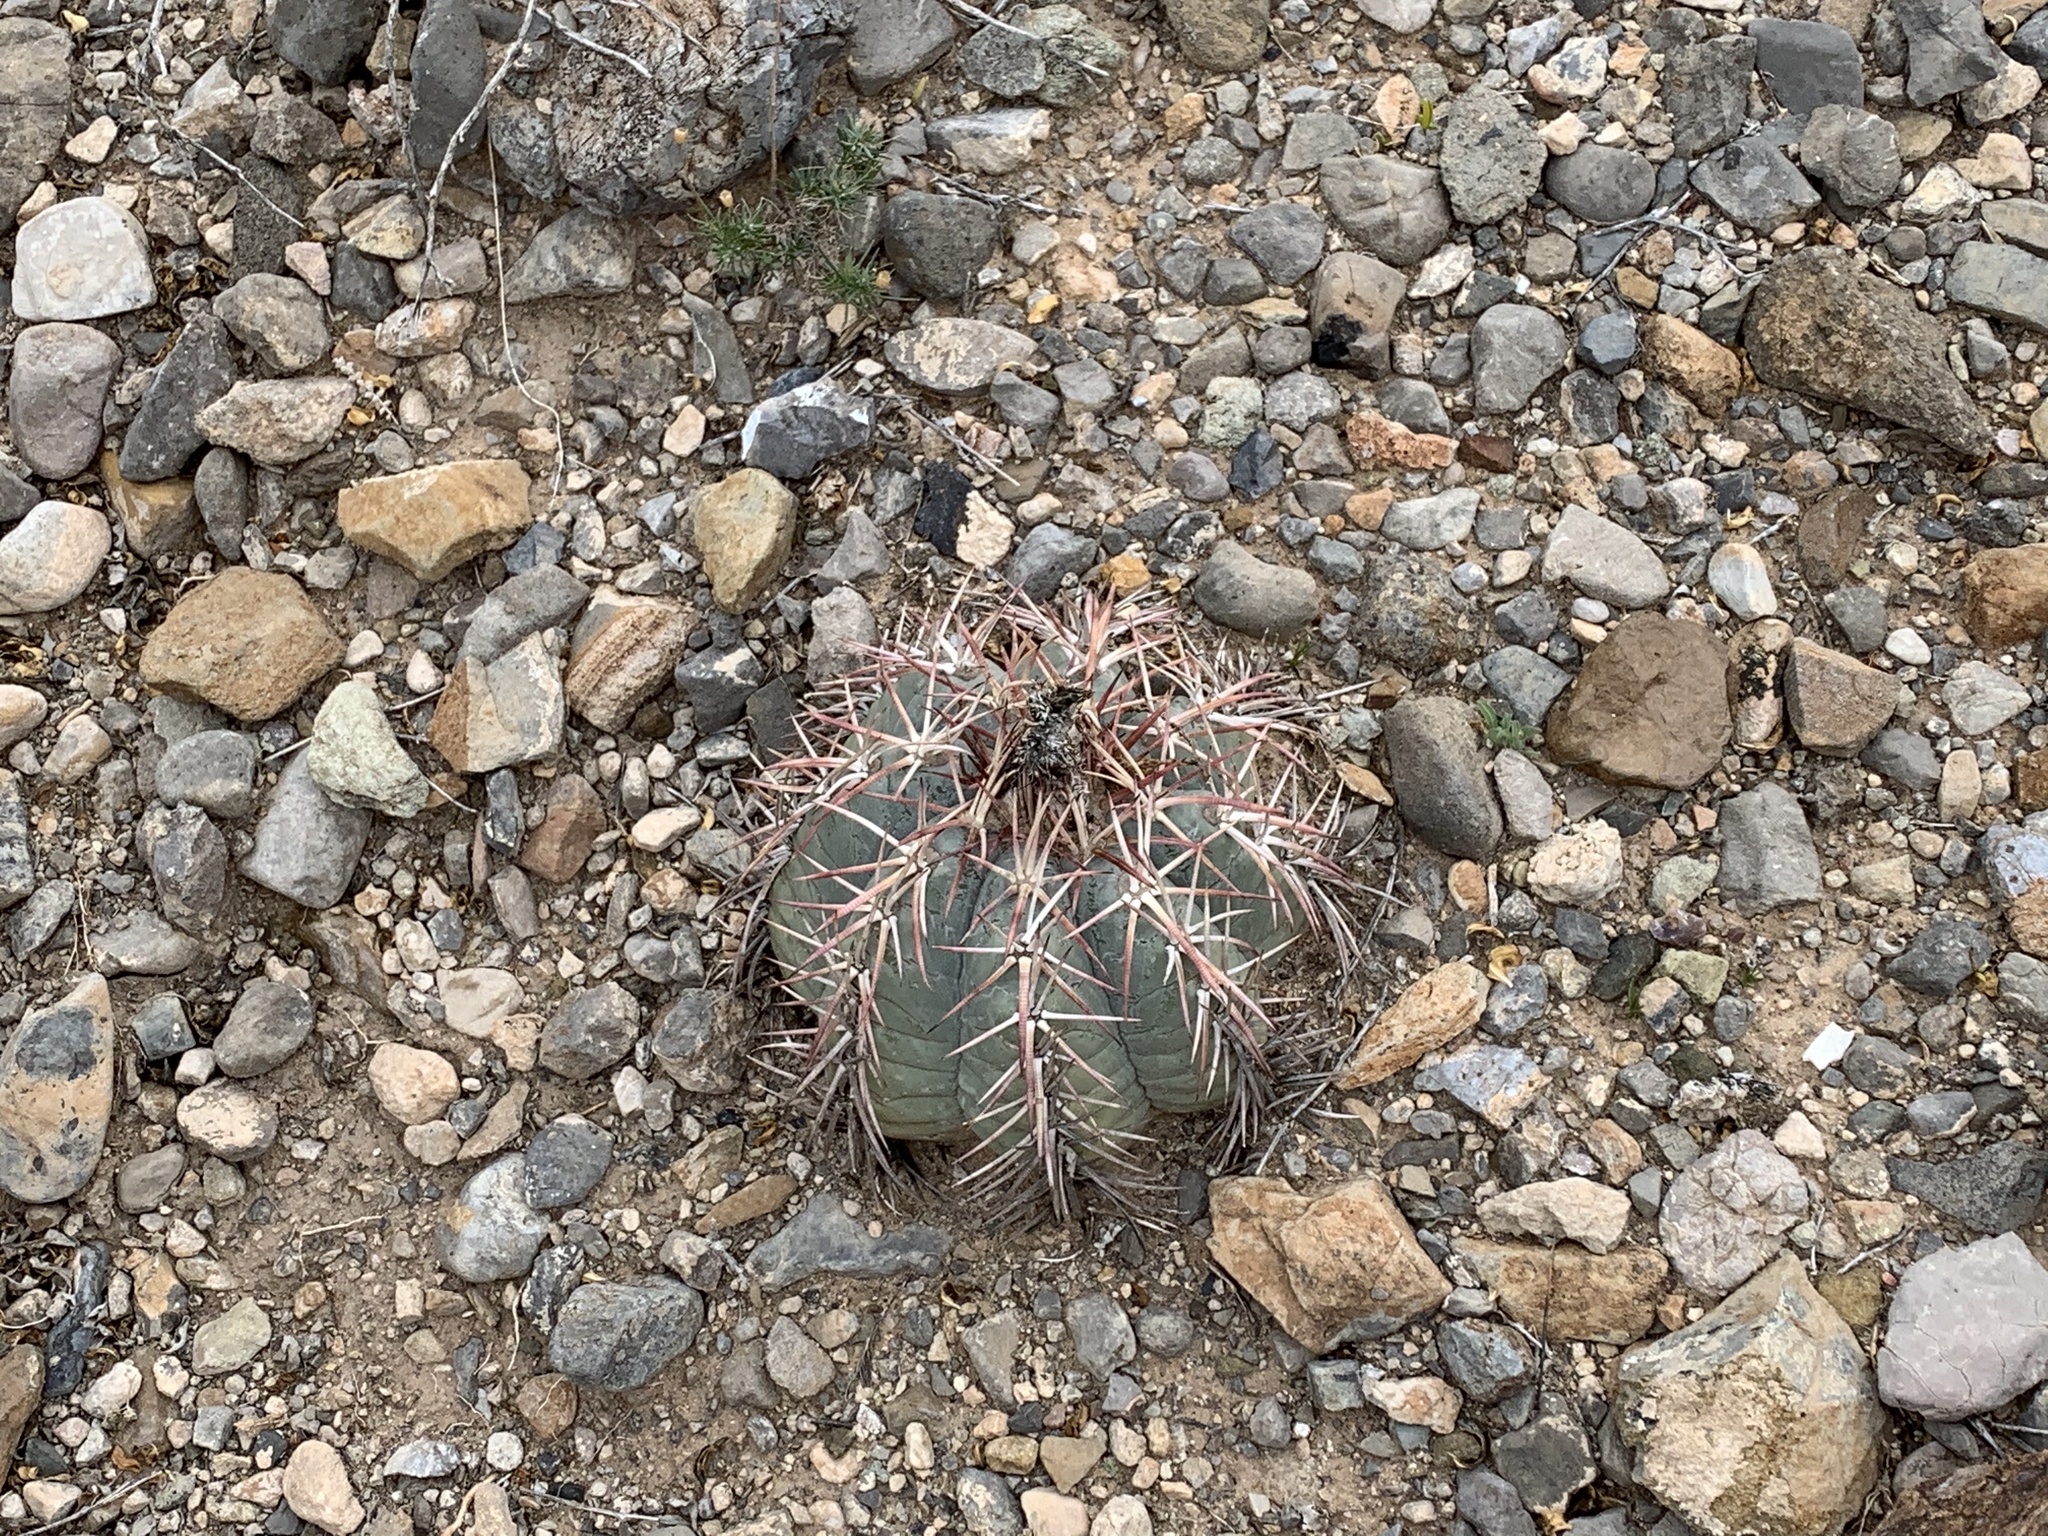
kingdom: Plantae
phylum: Tracheophyta
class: Magnoliopsida
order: Caryophyllales
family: Cactaceae
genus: Echinocactus
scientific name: Echinocactus horizonthalonius
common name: Devilshead
